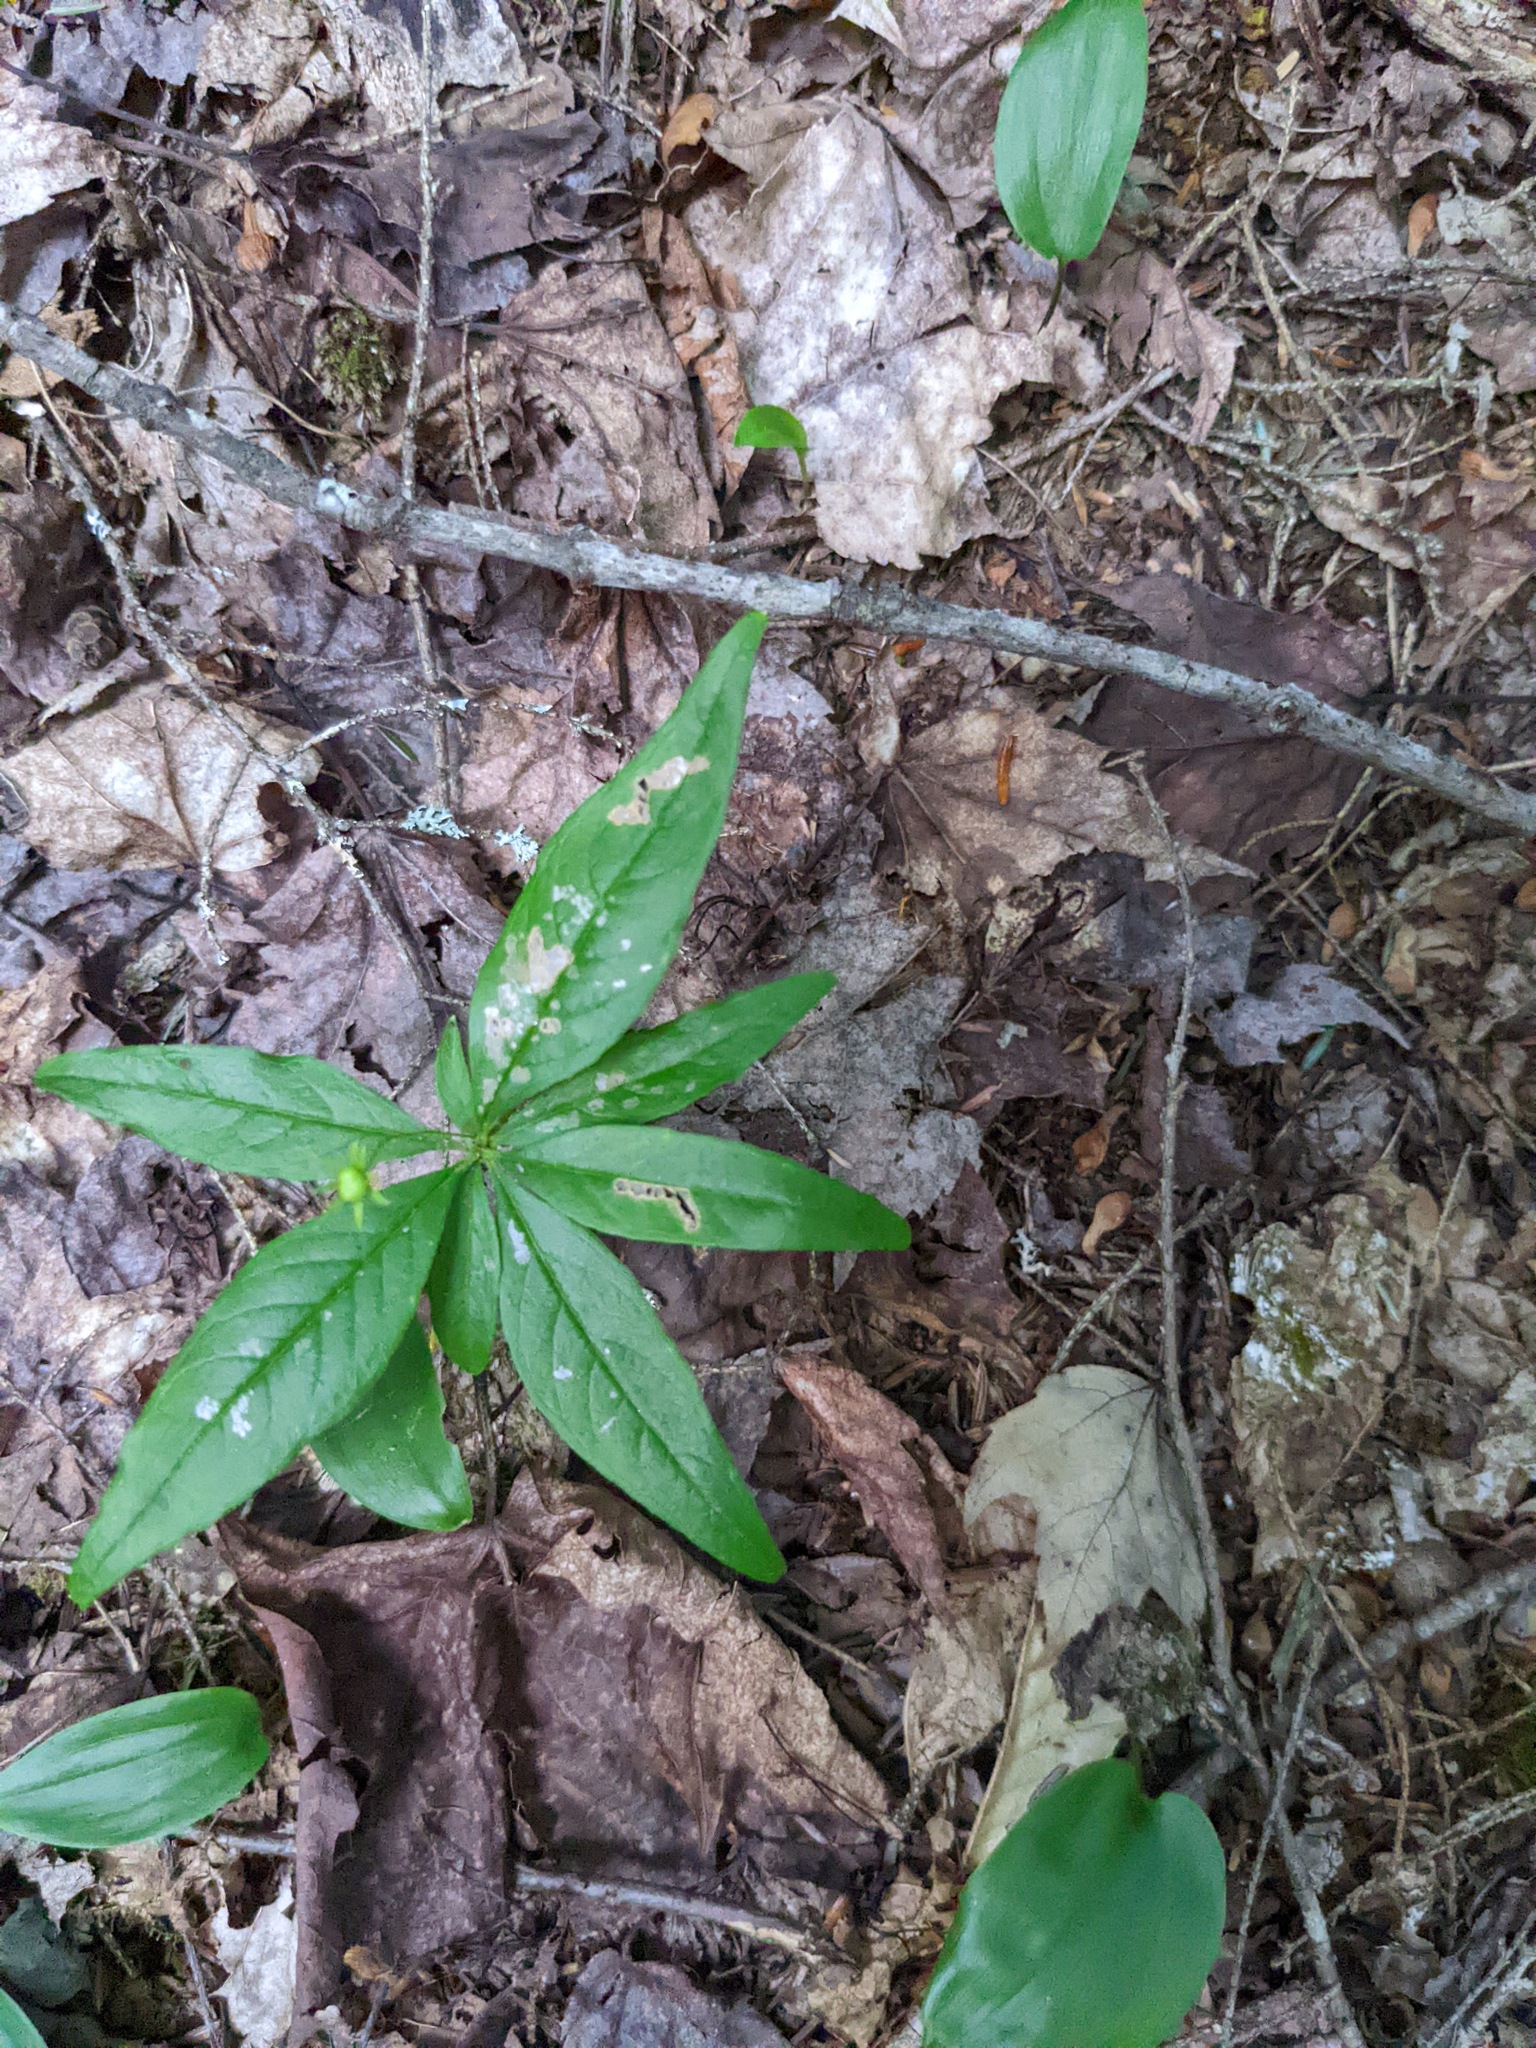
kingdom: Plantae
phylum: Tracheophyta
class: Magnoliopsida
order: Ericales
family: Primulaceae
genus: Lysimachia
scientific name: Lysimachia borealis
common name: American starflower
